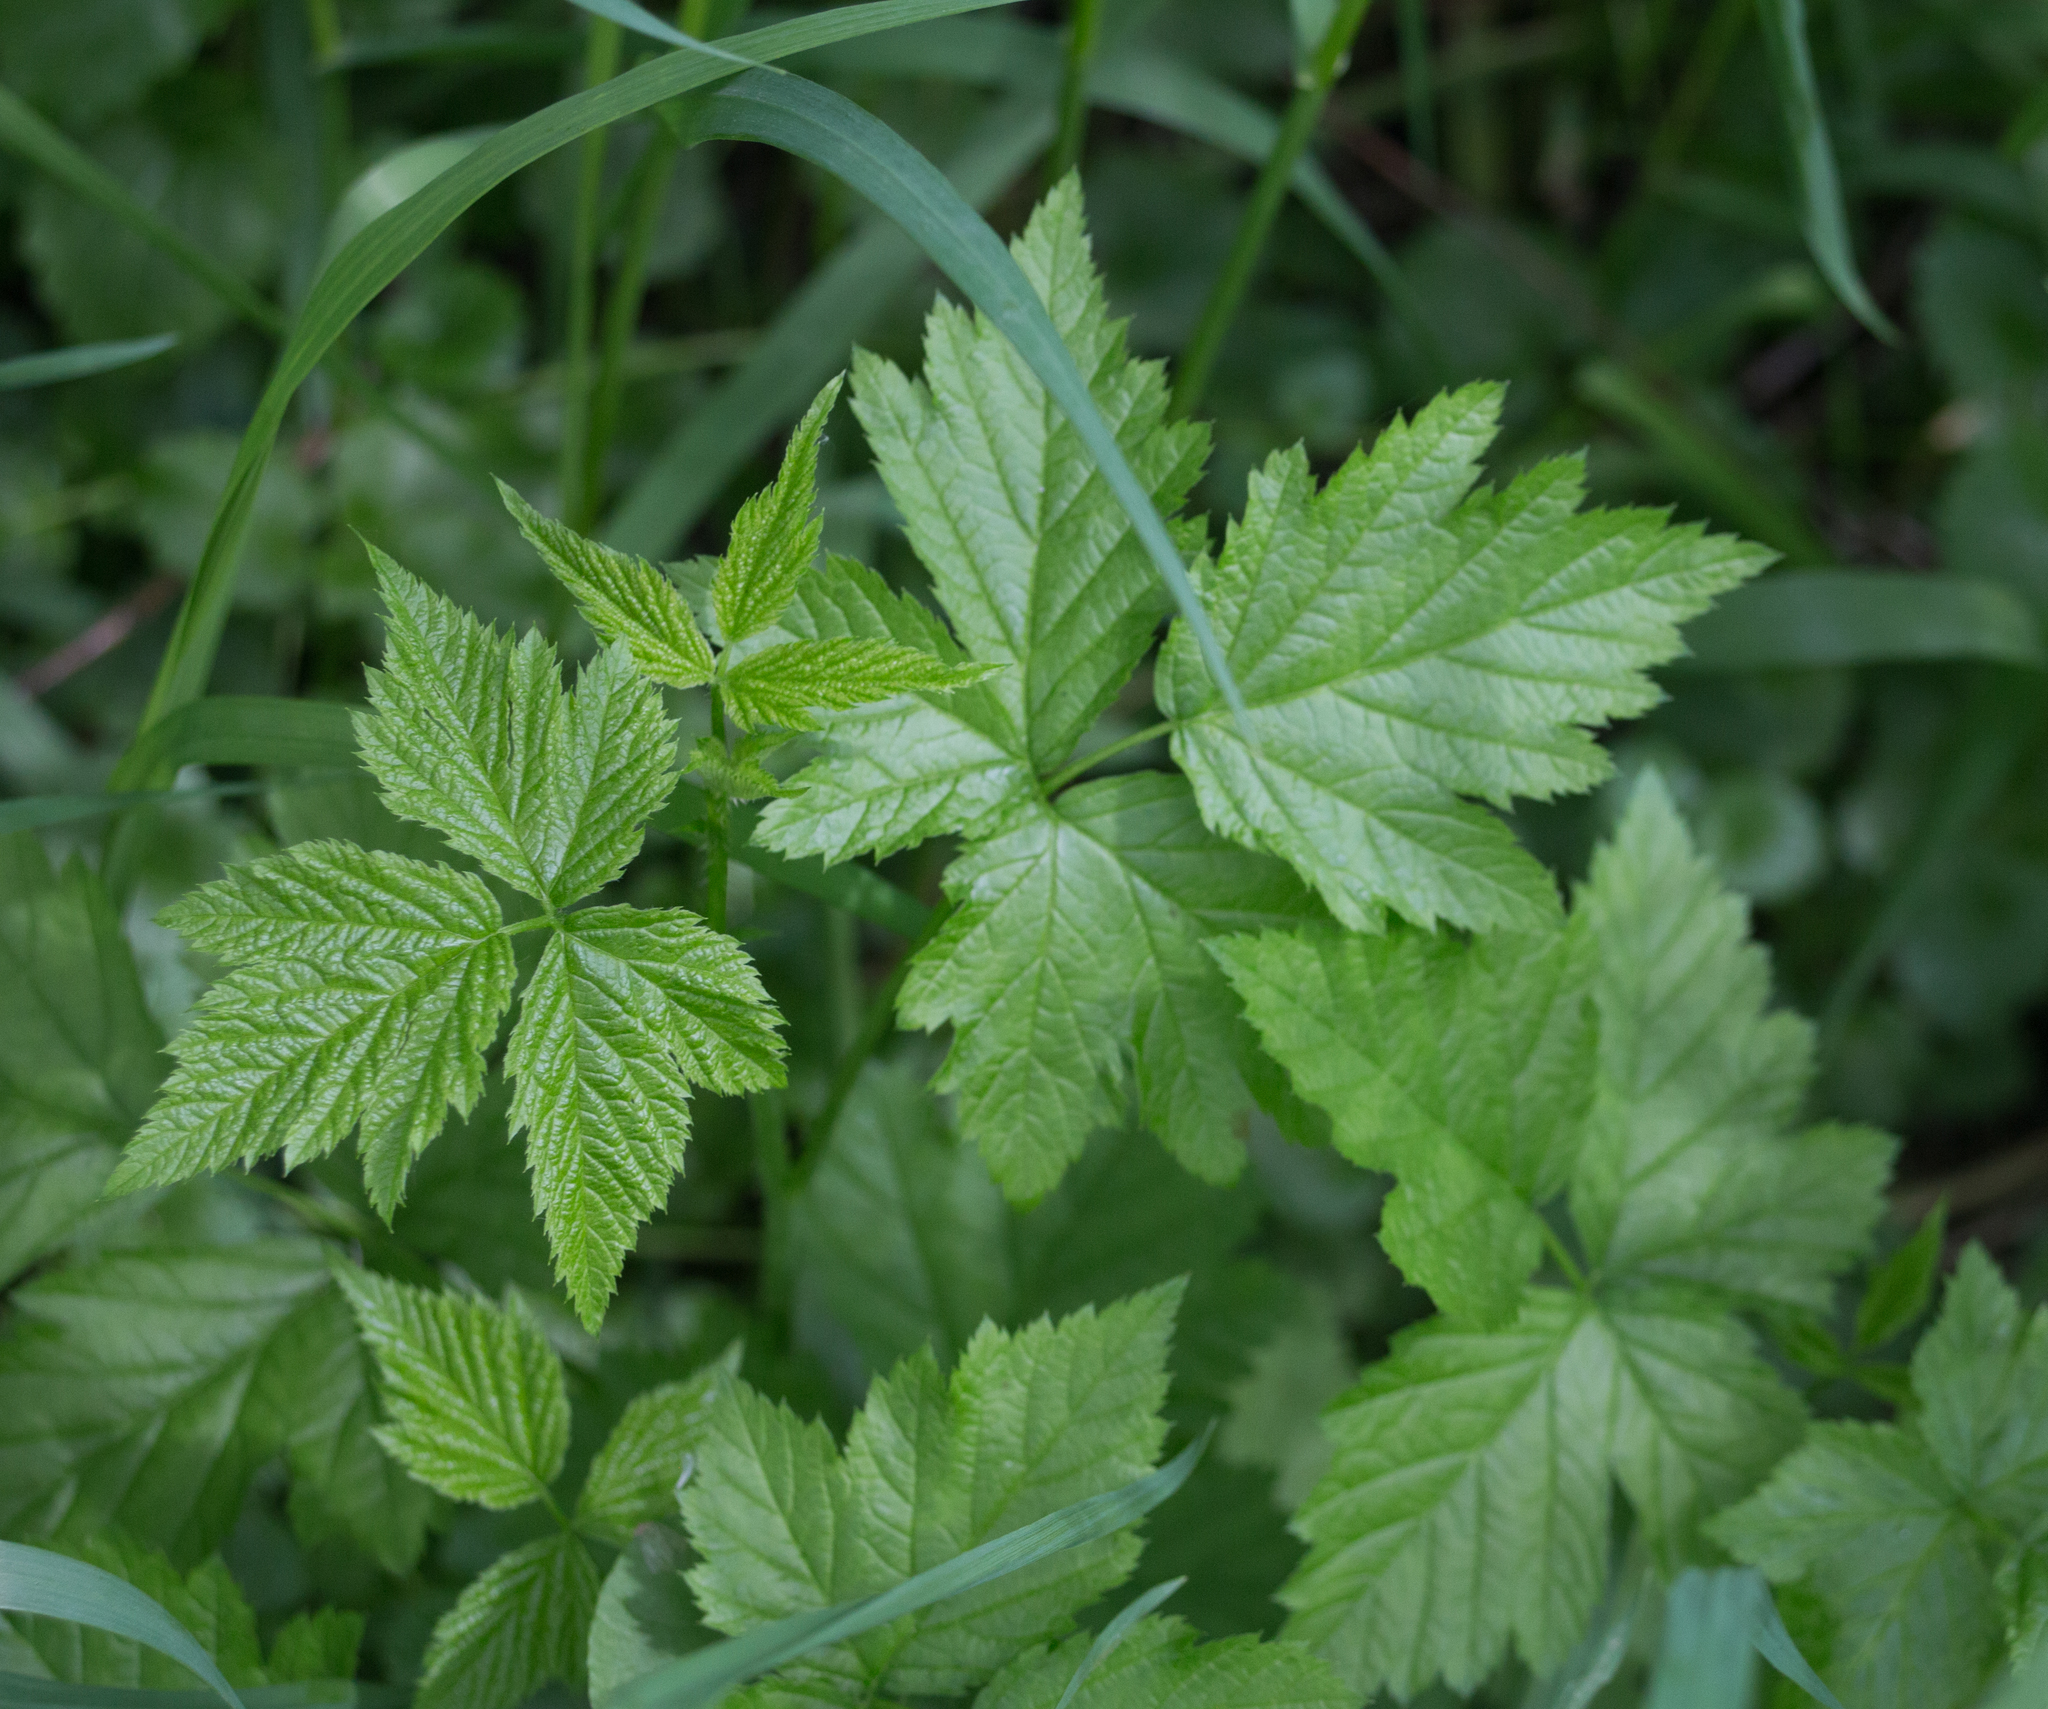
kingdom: Plantae
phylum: Tracheophyta
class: Magnoliopsida
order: Rosales
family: Rosaceae
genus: Rubus
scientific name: Rubus caesius
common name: Dewberry
